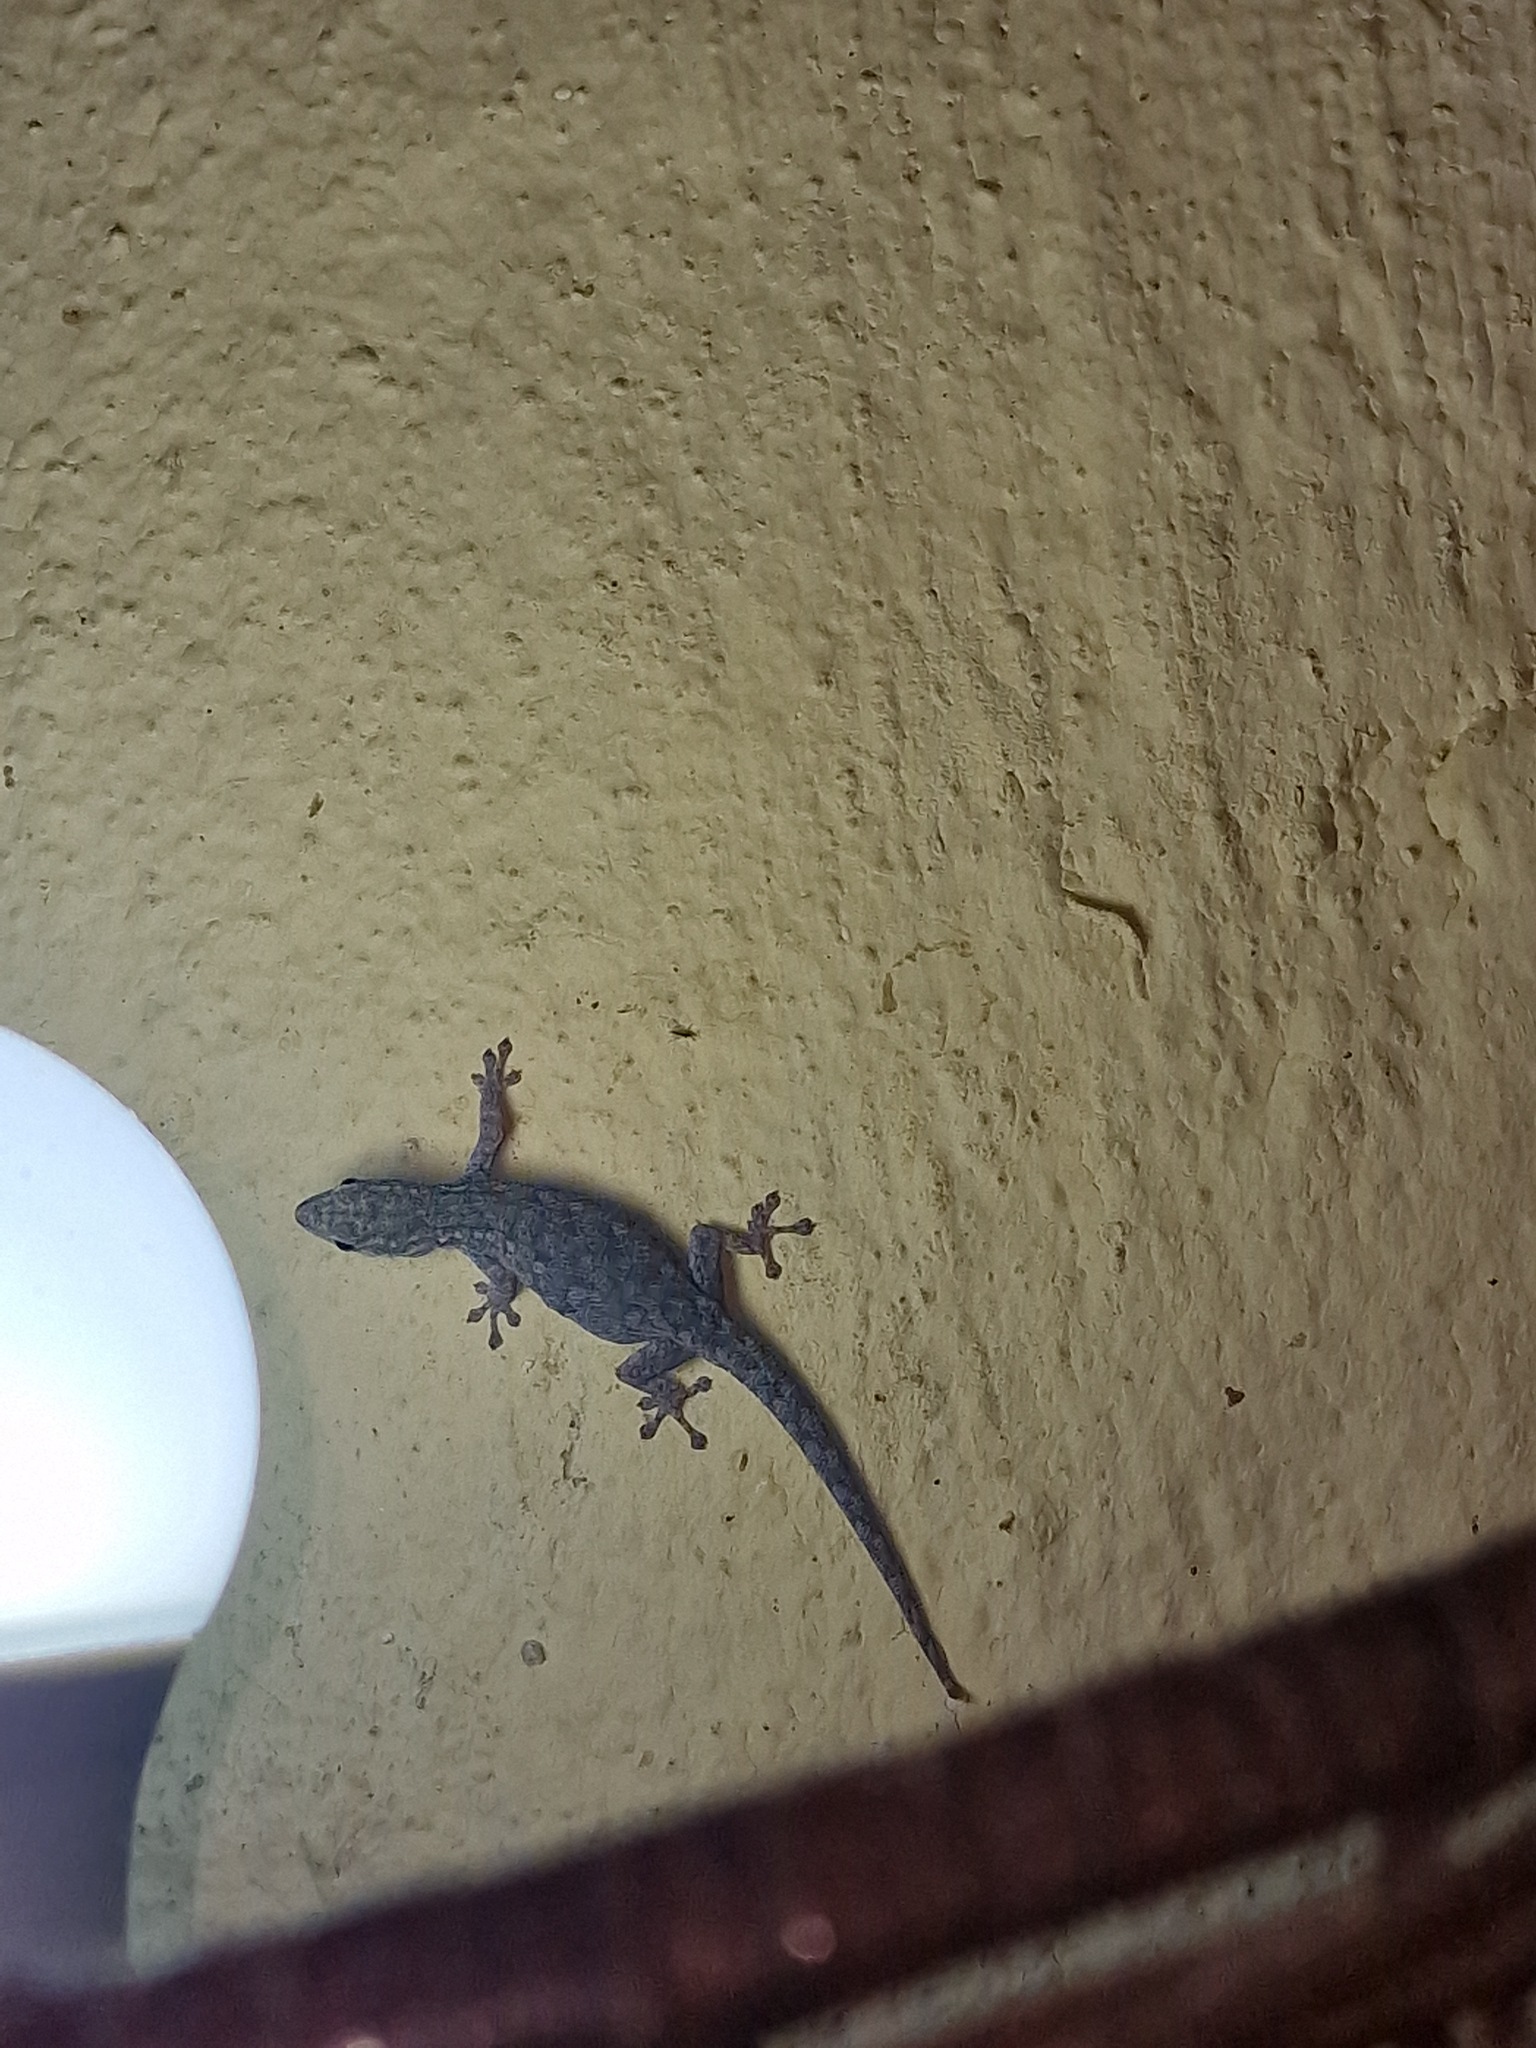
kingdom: Animalia
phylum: Chordata
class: Squamata
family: Gekkonidae
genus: Lygodactylus
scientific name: Lygodactylus chobiensis
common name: Okavango dwarf gecko
